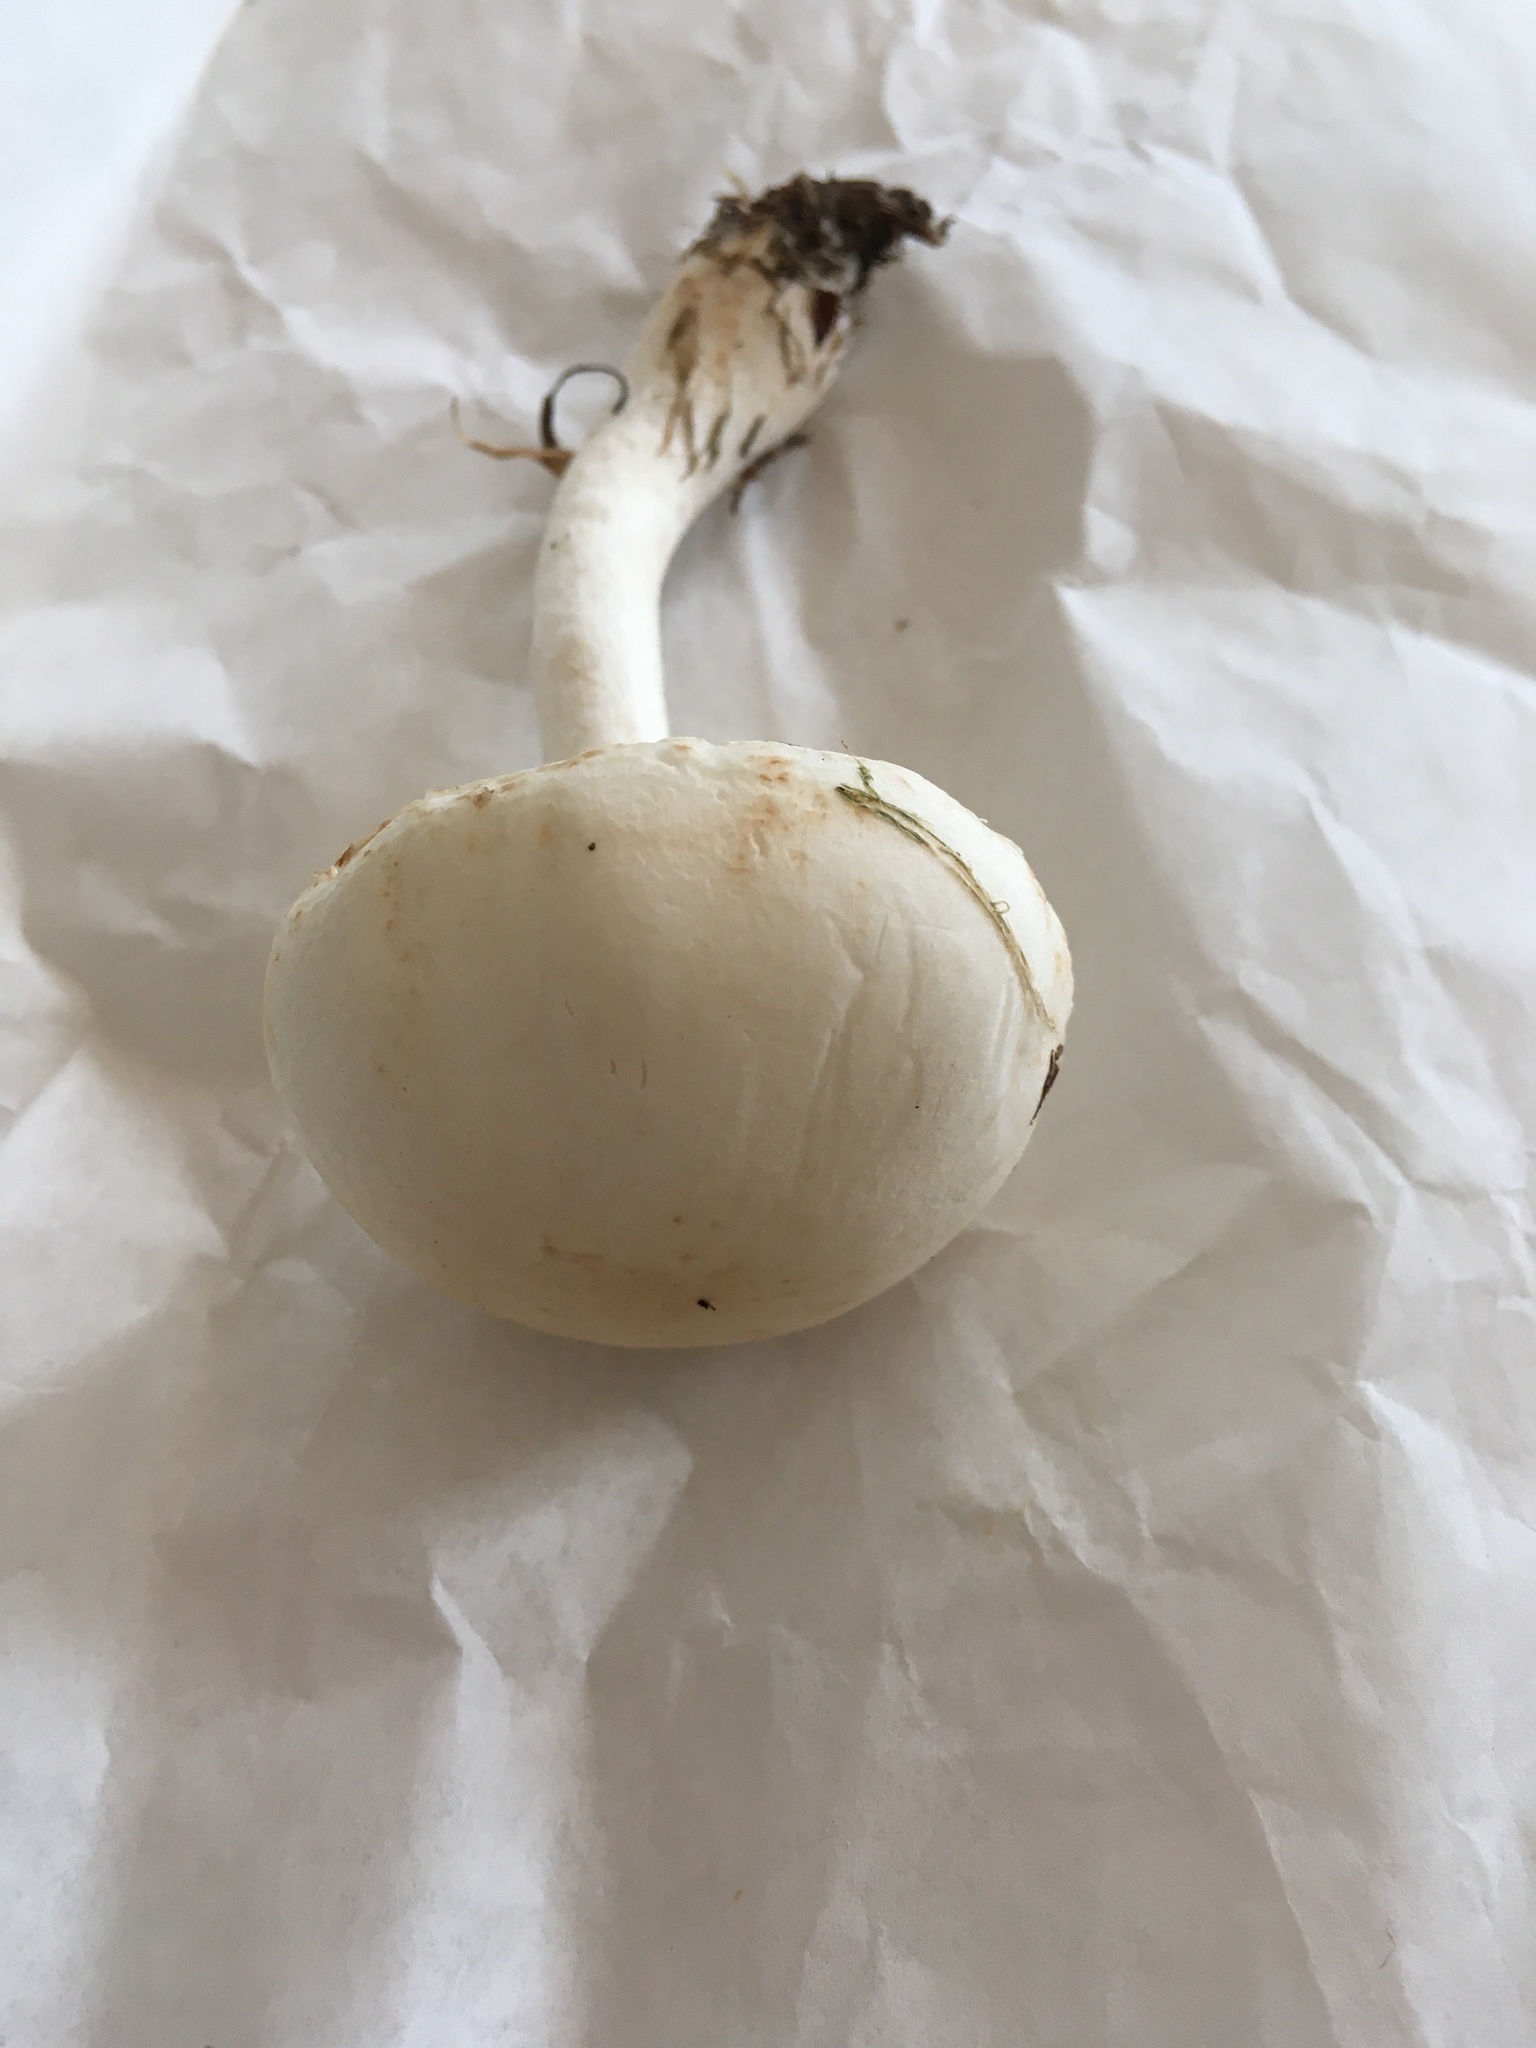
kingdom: Fungi
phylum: Basidiomycota
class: Agaricomycetes
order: Agaricales
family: Agaricaceae
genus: Leucoagaricus
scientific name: Leucoagaricus leucothites
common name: White dapperling
